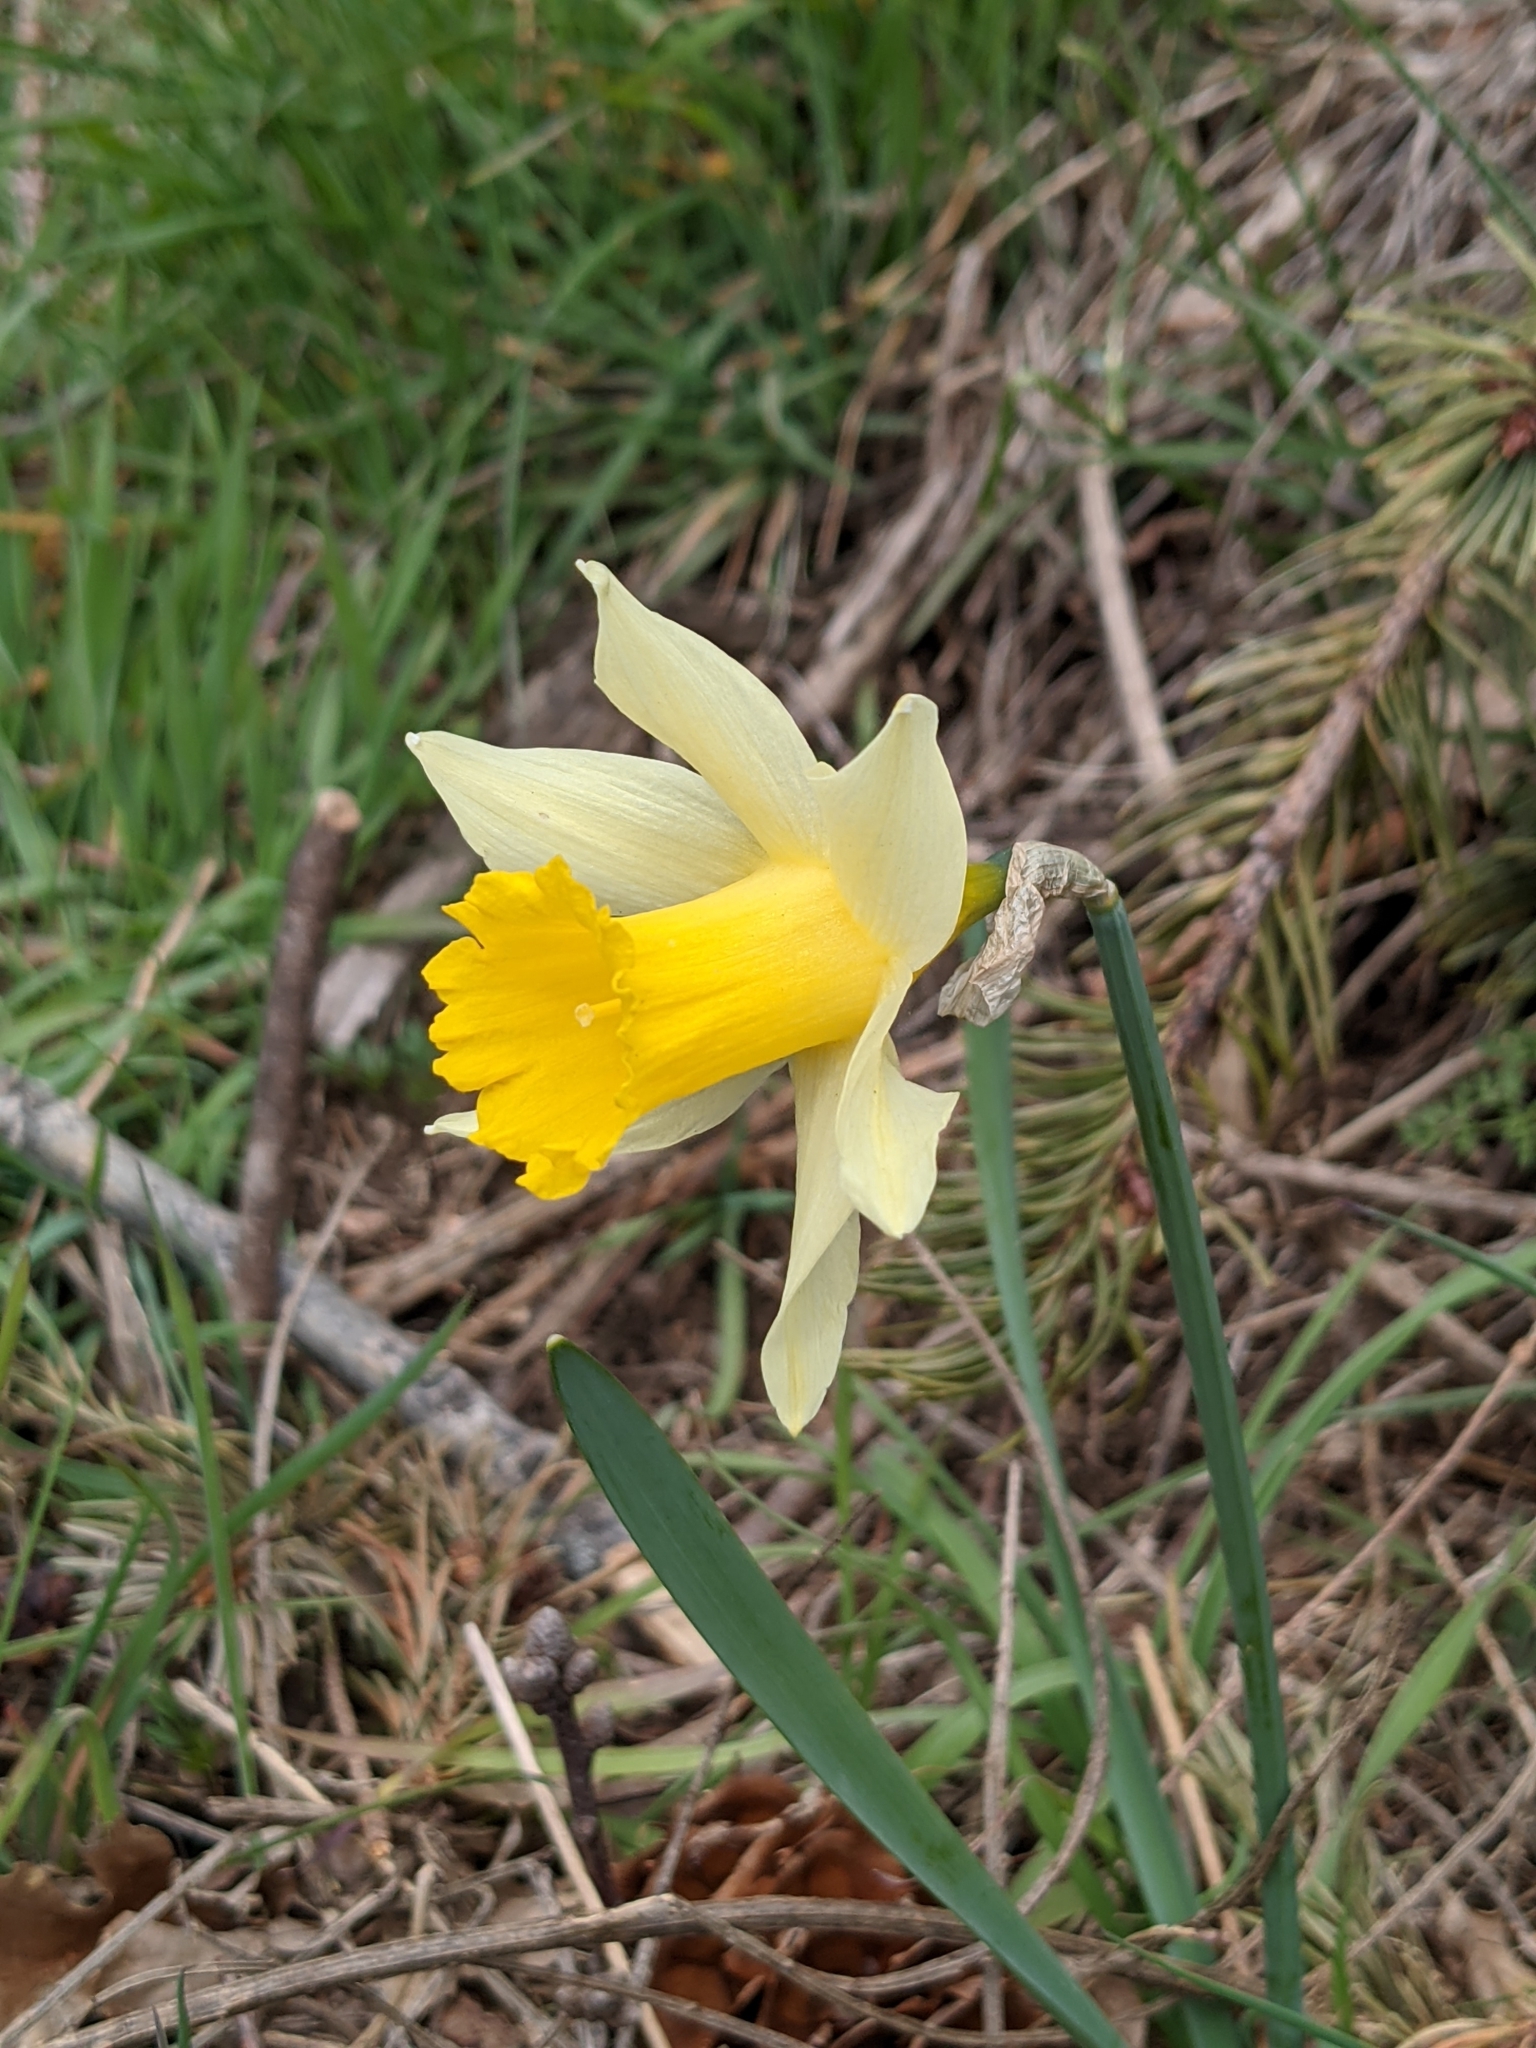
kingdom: Plantae
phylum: Tracheophyta
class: Liliopsida
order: Asparagales
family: Amaryllidaceae
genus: Narcissus
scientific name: Narcissus pseudonarcissus
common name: Daffodil
